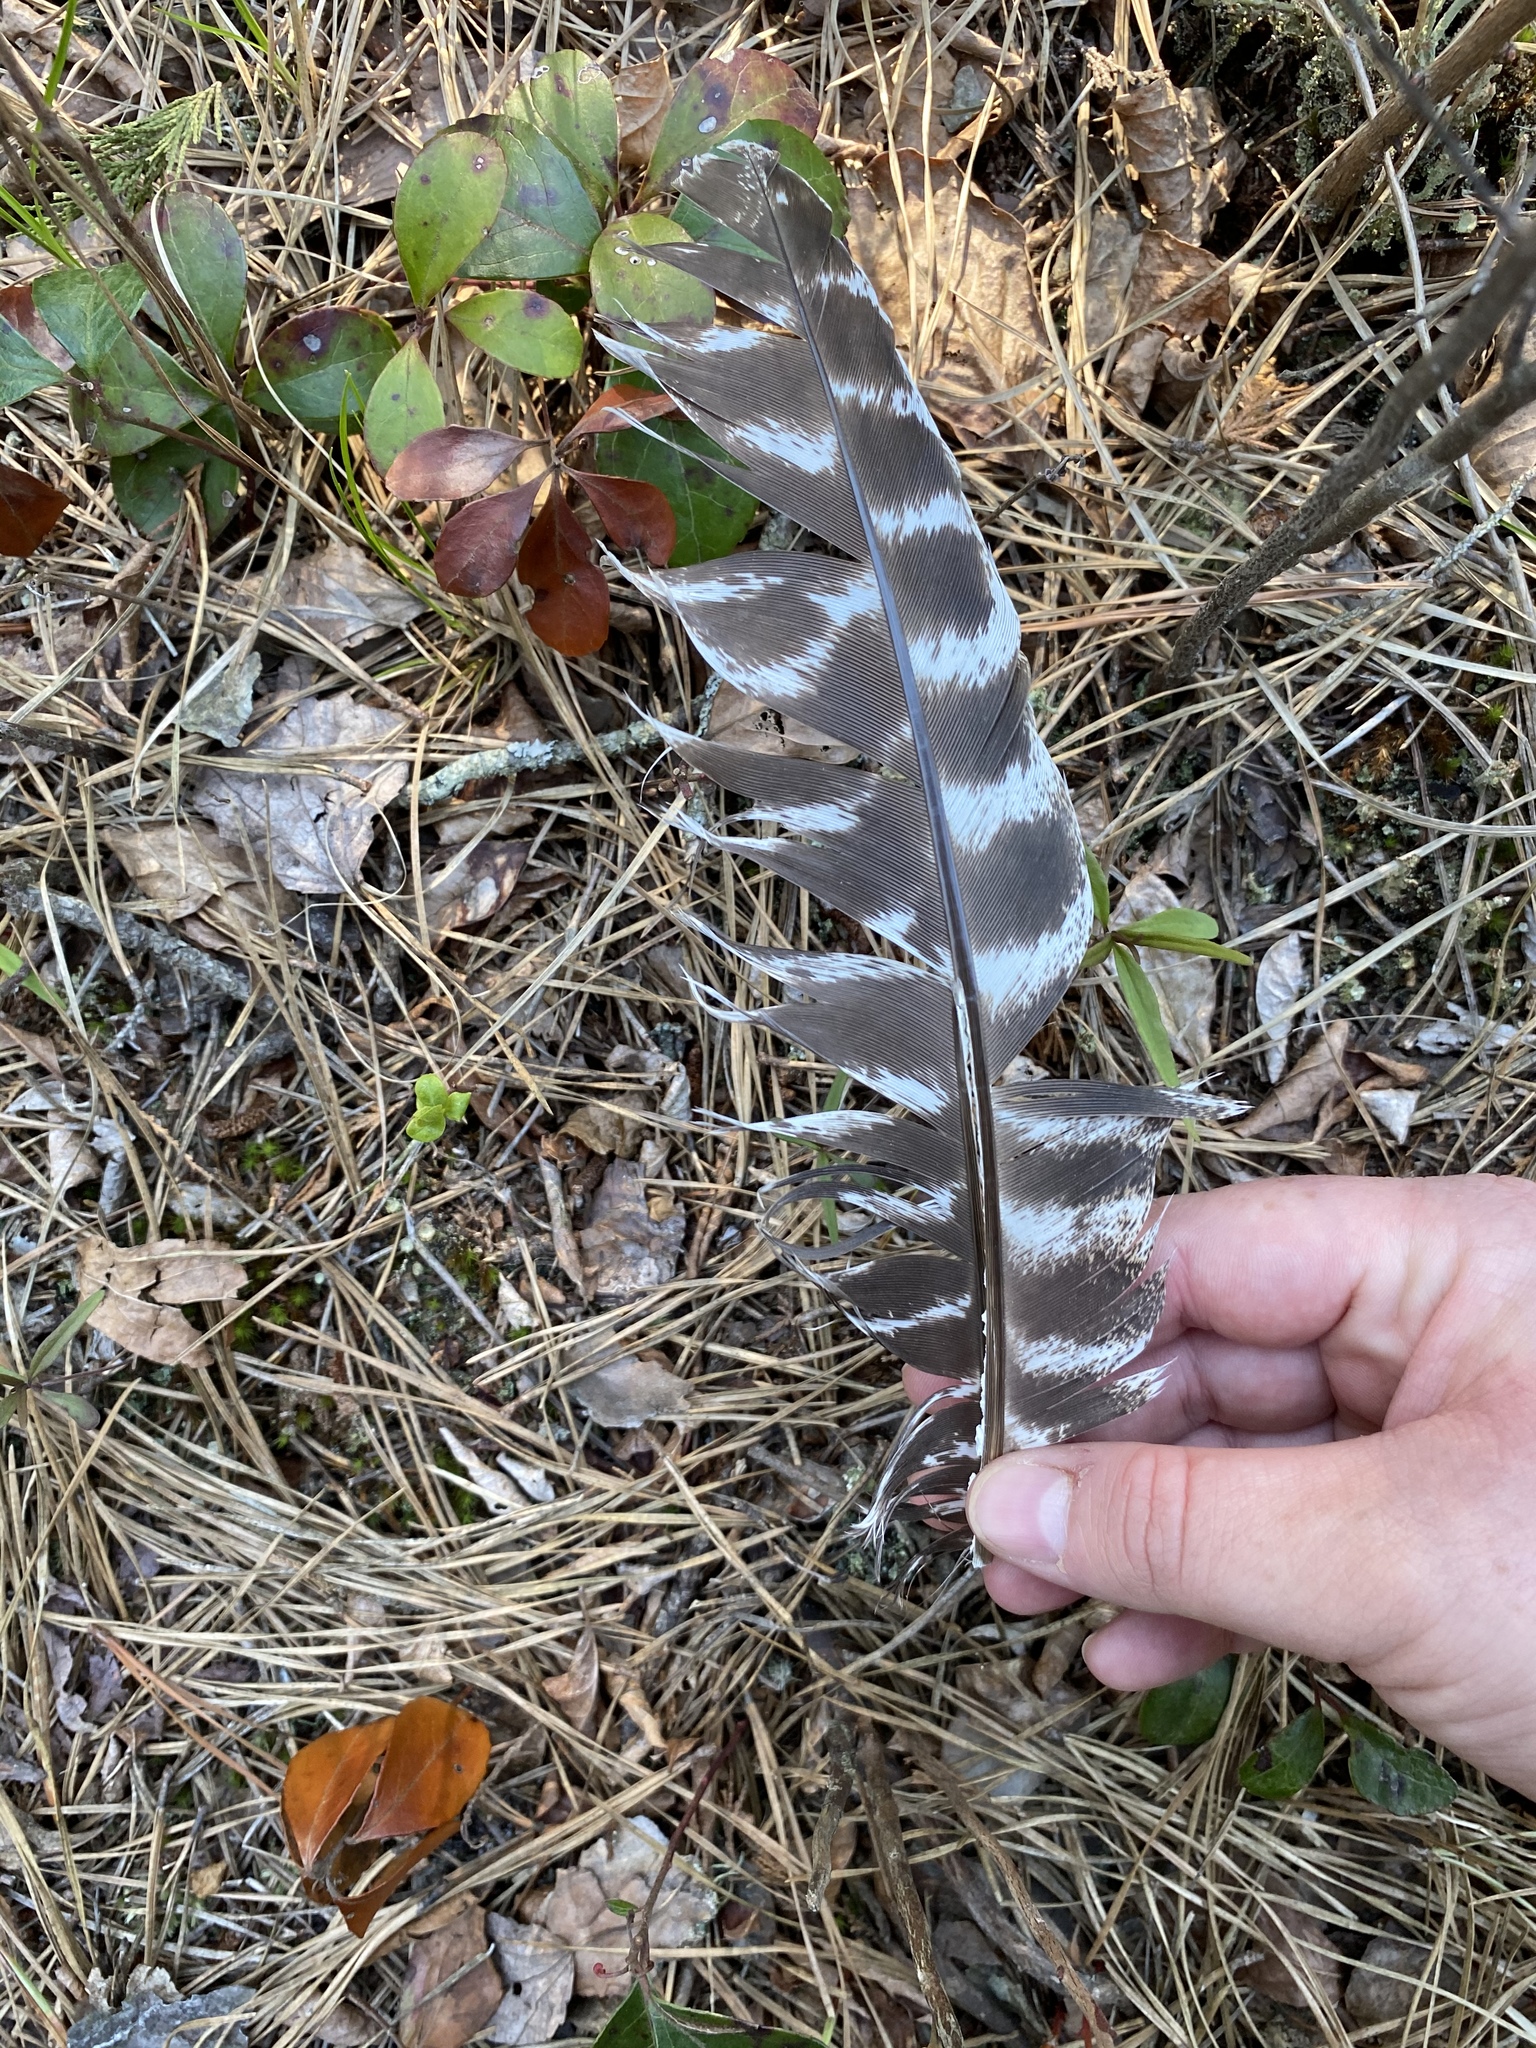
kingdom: Animalia
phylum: Chordata
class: Aves
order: Galliformes
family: Phasianidae
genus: Meleagris
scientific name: Meleagris gallopavo
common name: Wild turkey
